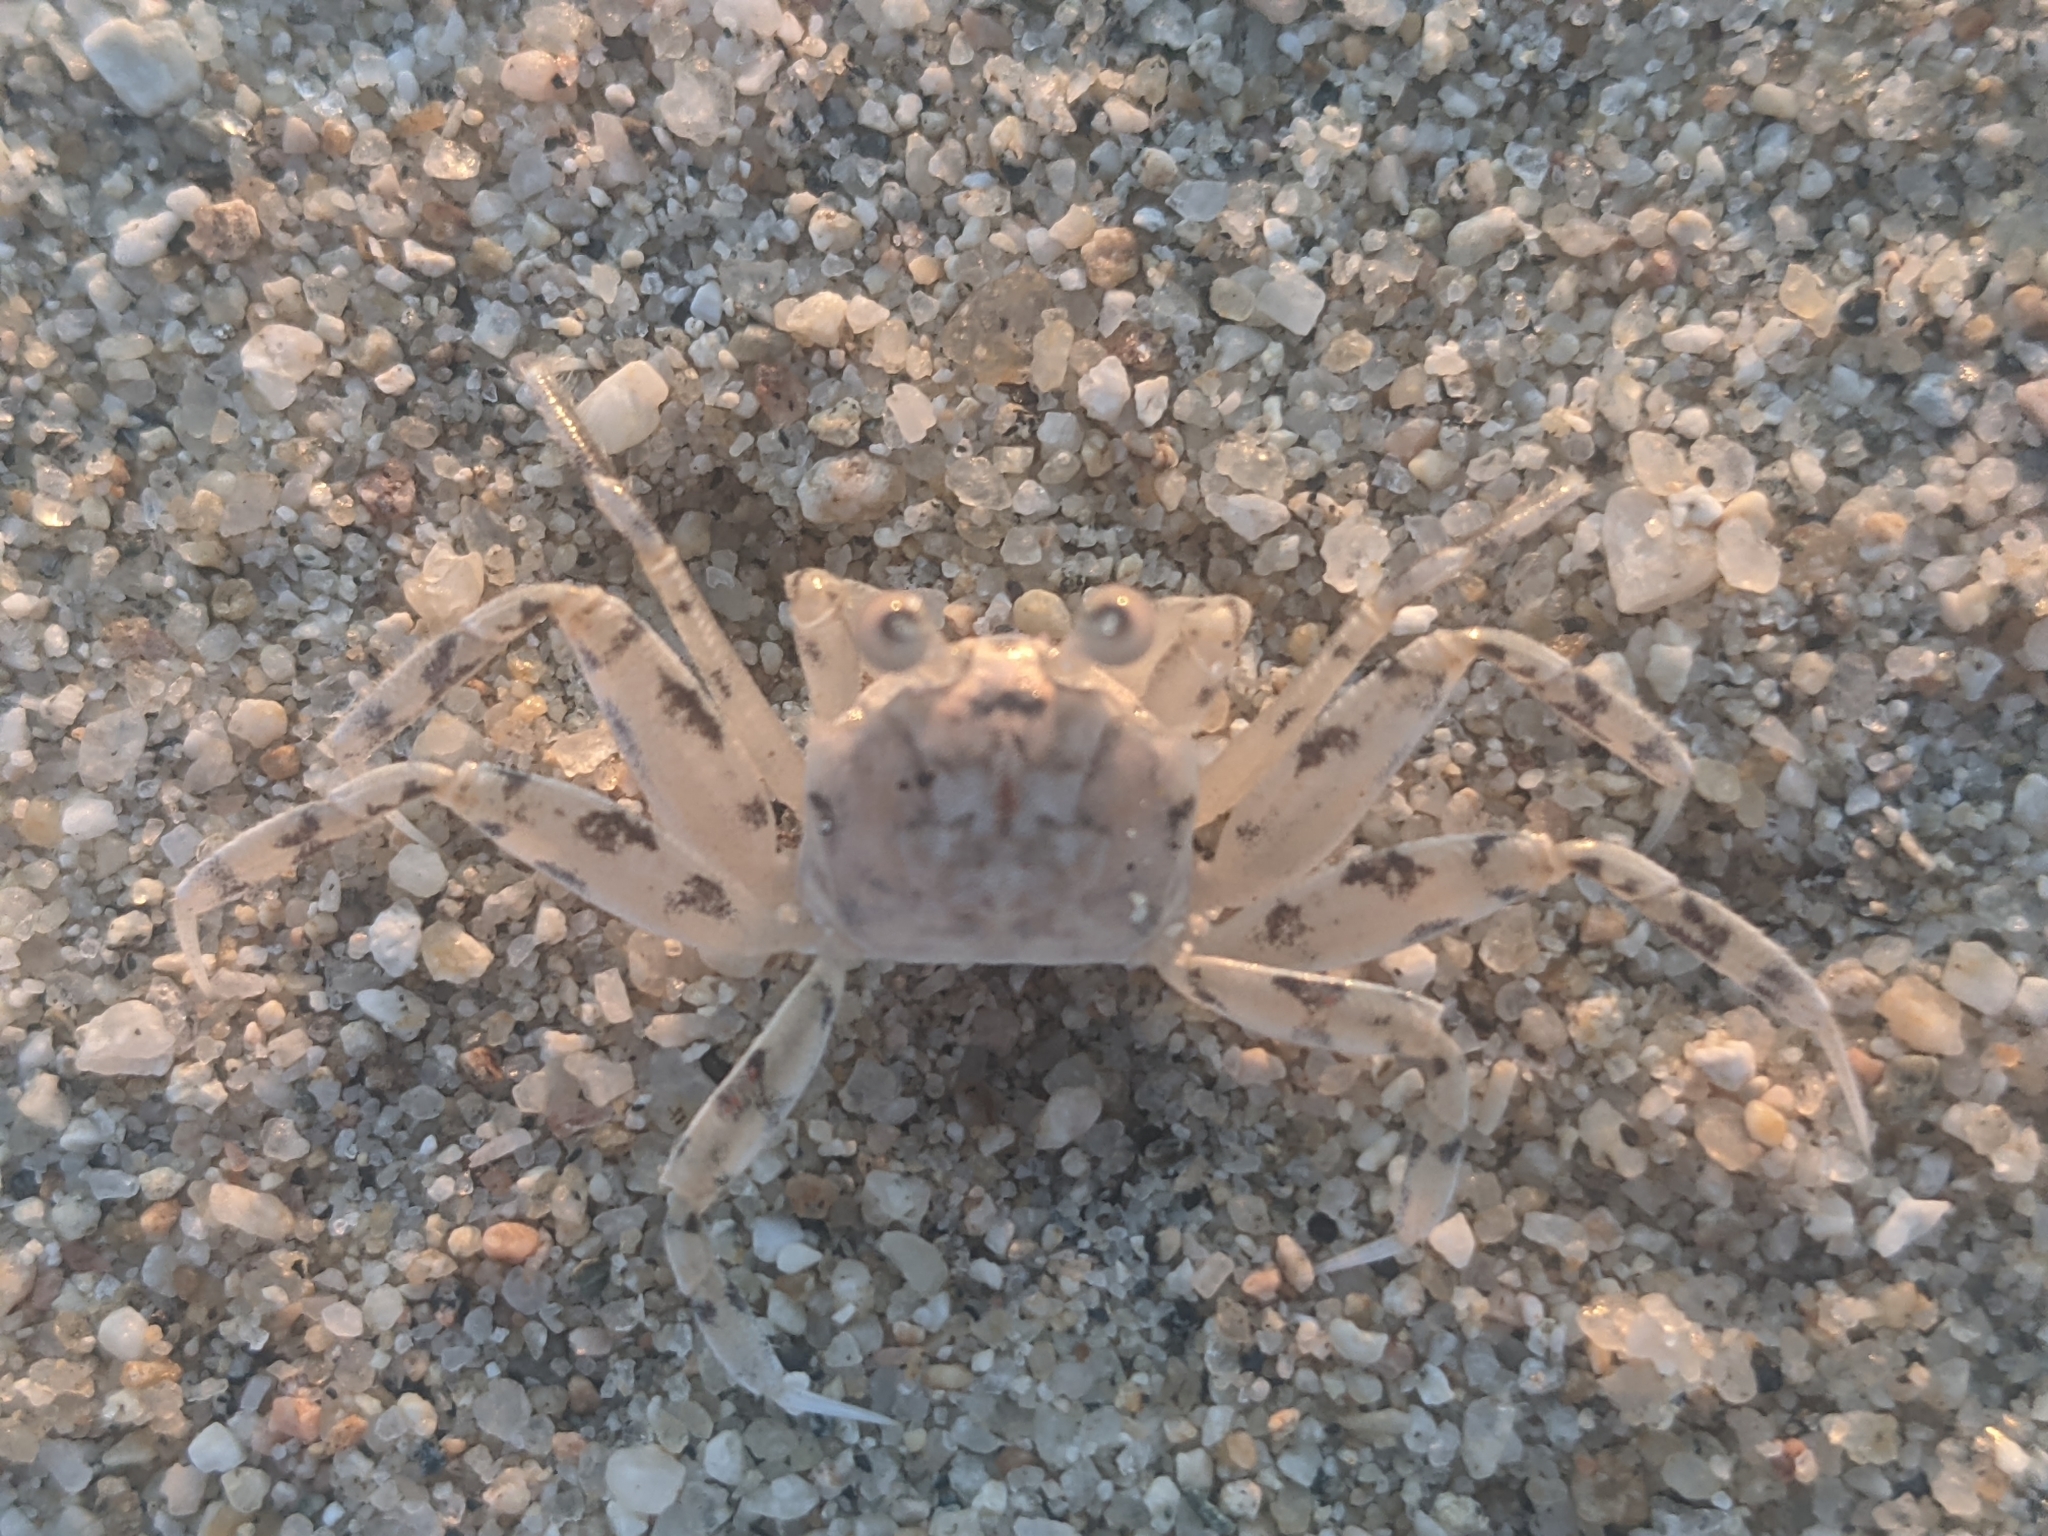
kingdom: Animalia
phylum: Arthropoda
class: Malacostraca
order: Decapoda
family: Ocypodidae
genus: Ocypode
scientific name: Ocypode occidentalis
